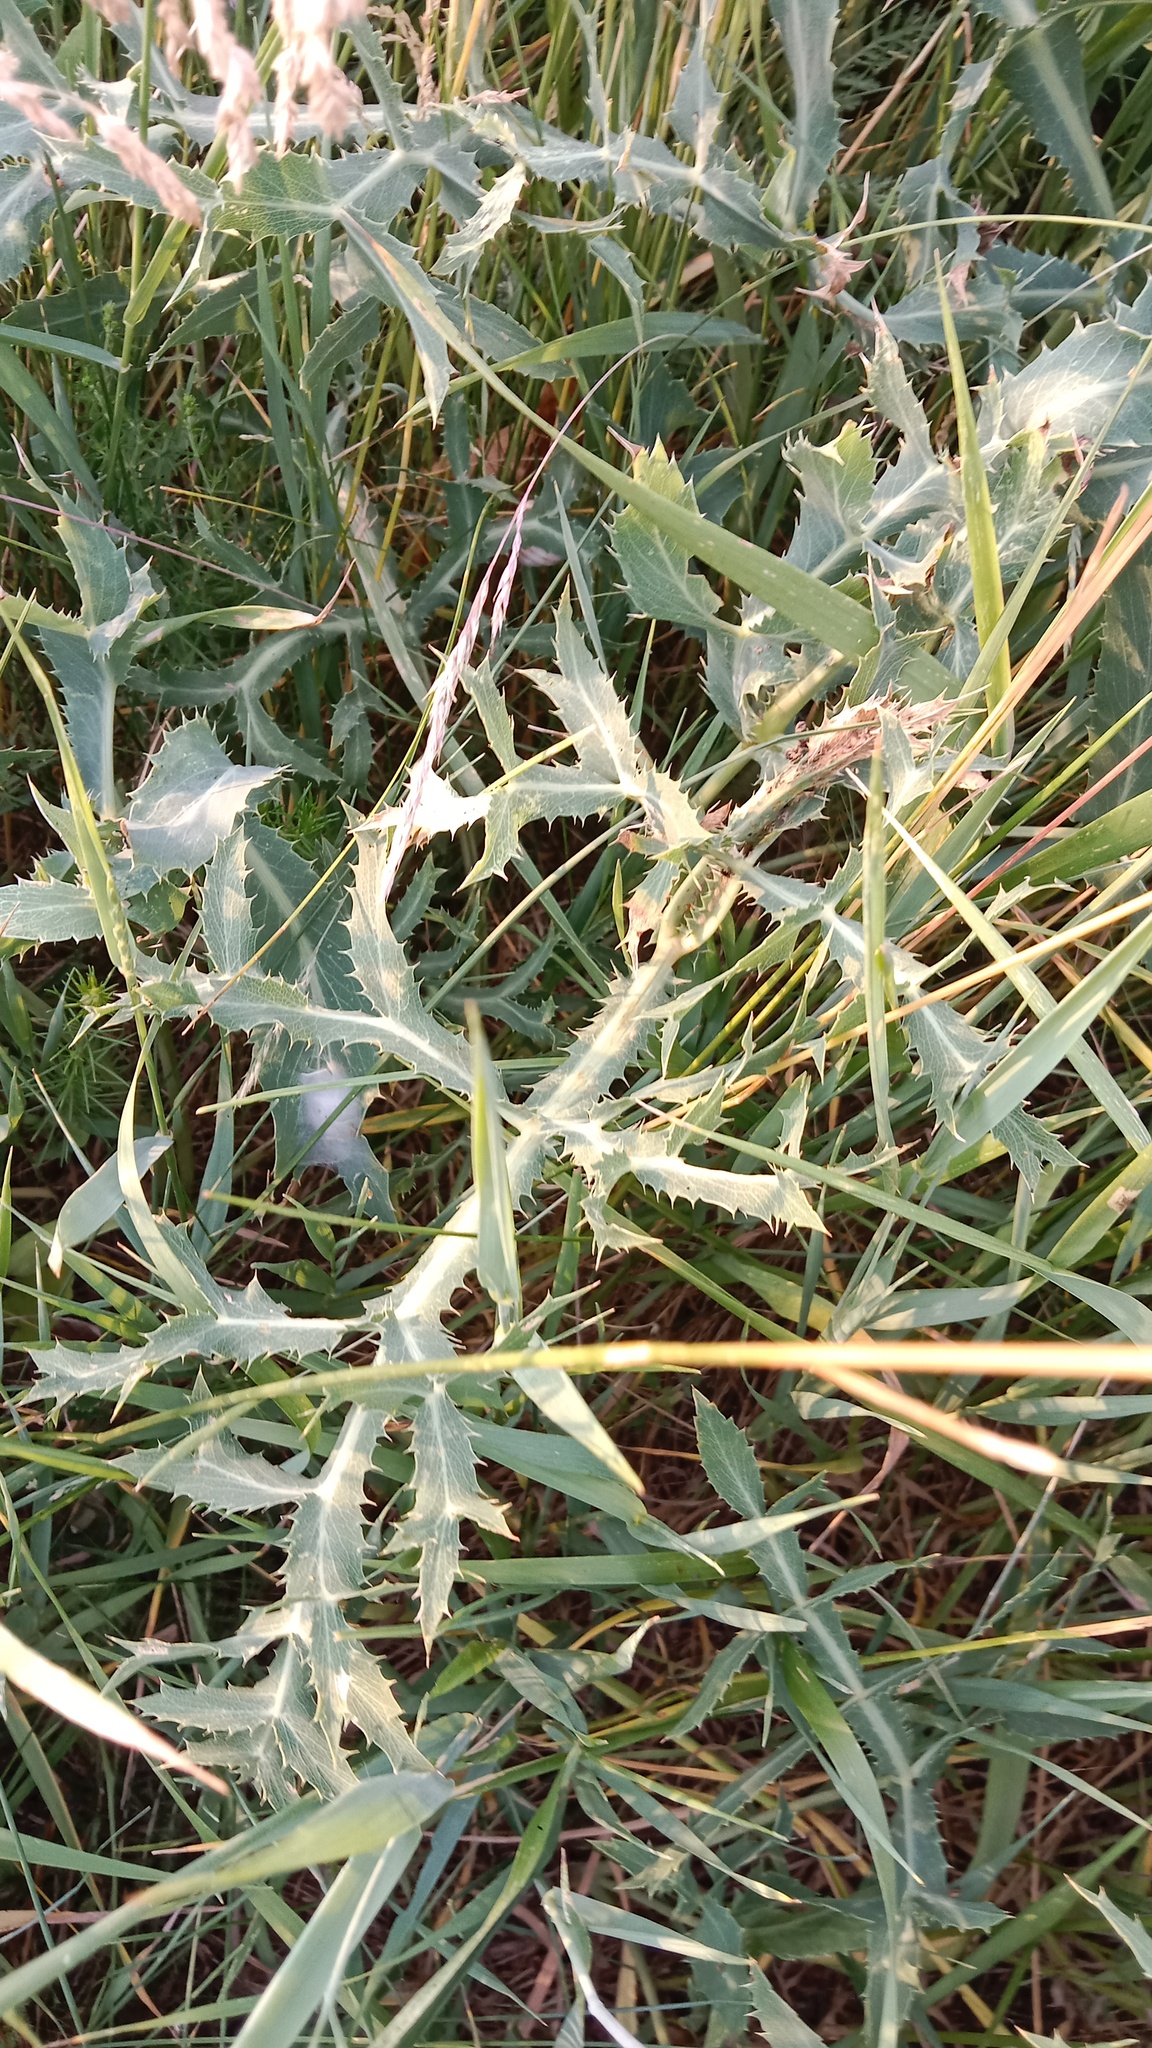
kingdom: Plantae
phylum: Tracheophyta
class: Magnoliopsida
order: Apiales
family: Apiaceae
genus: Eryngium
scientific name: Eryngium campestre
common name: Field eryngo
